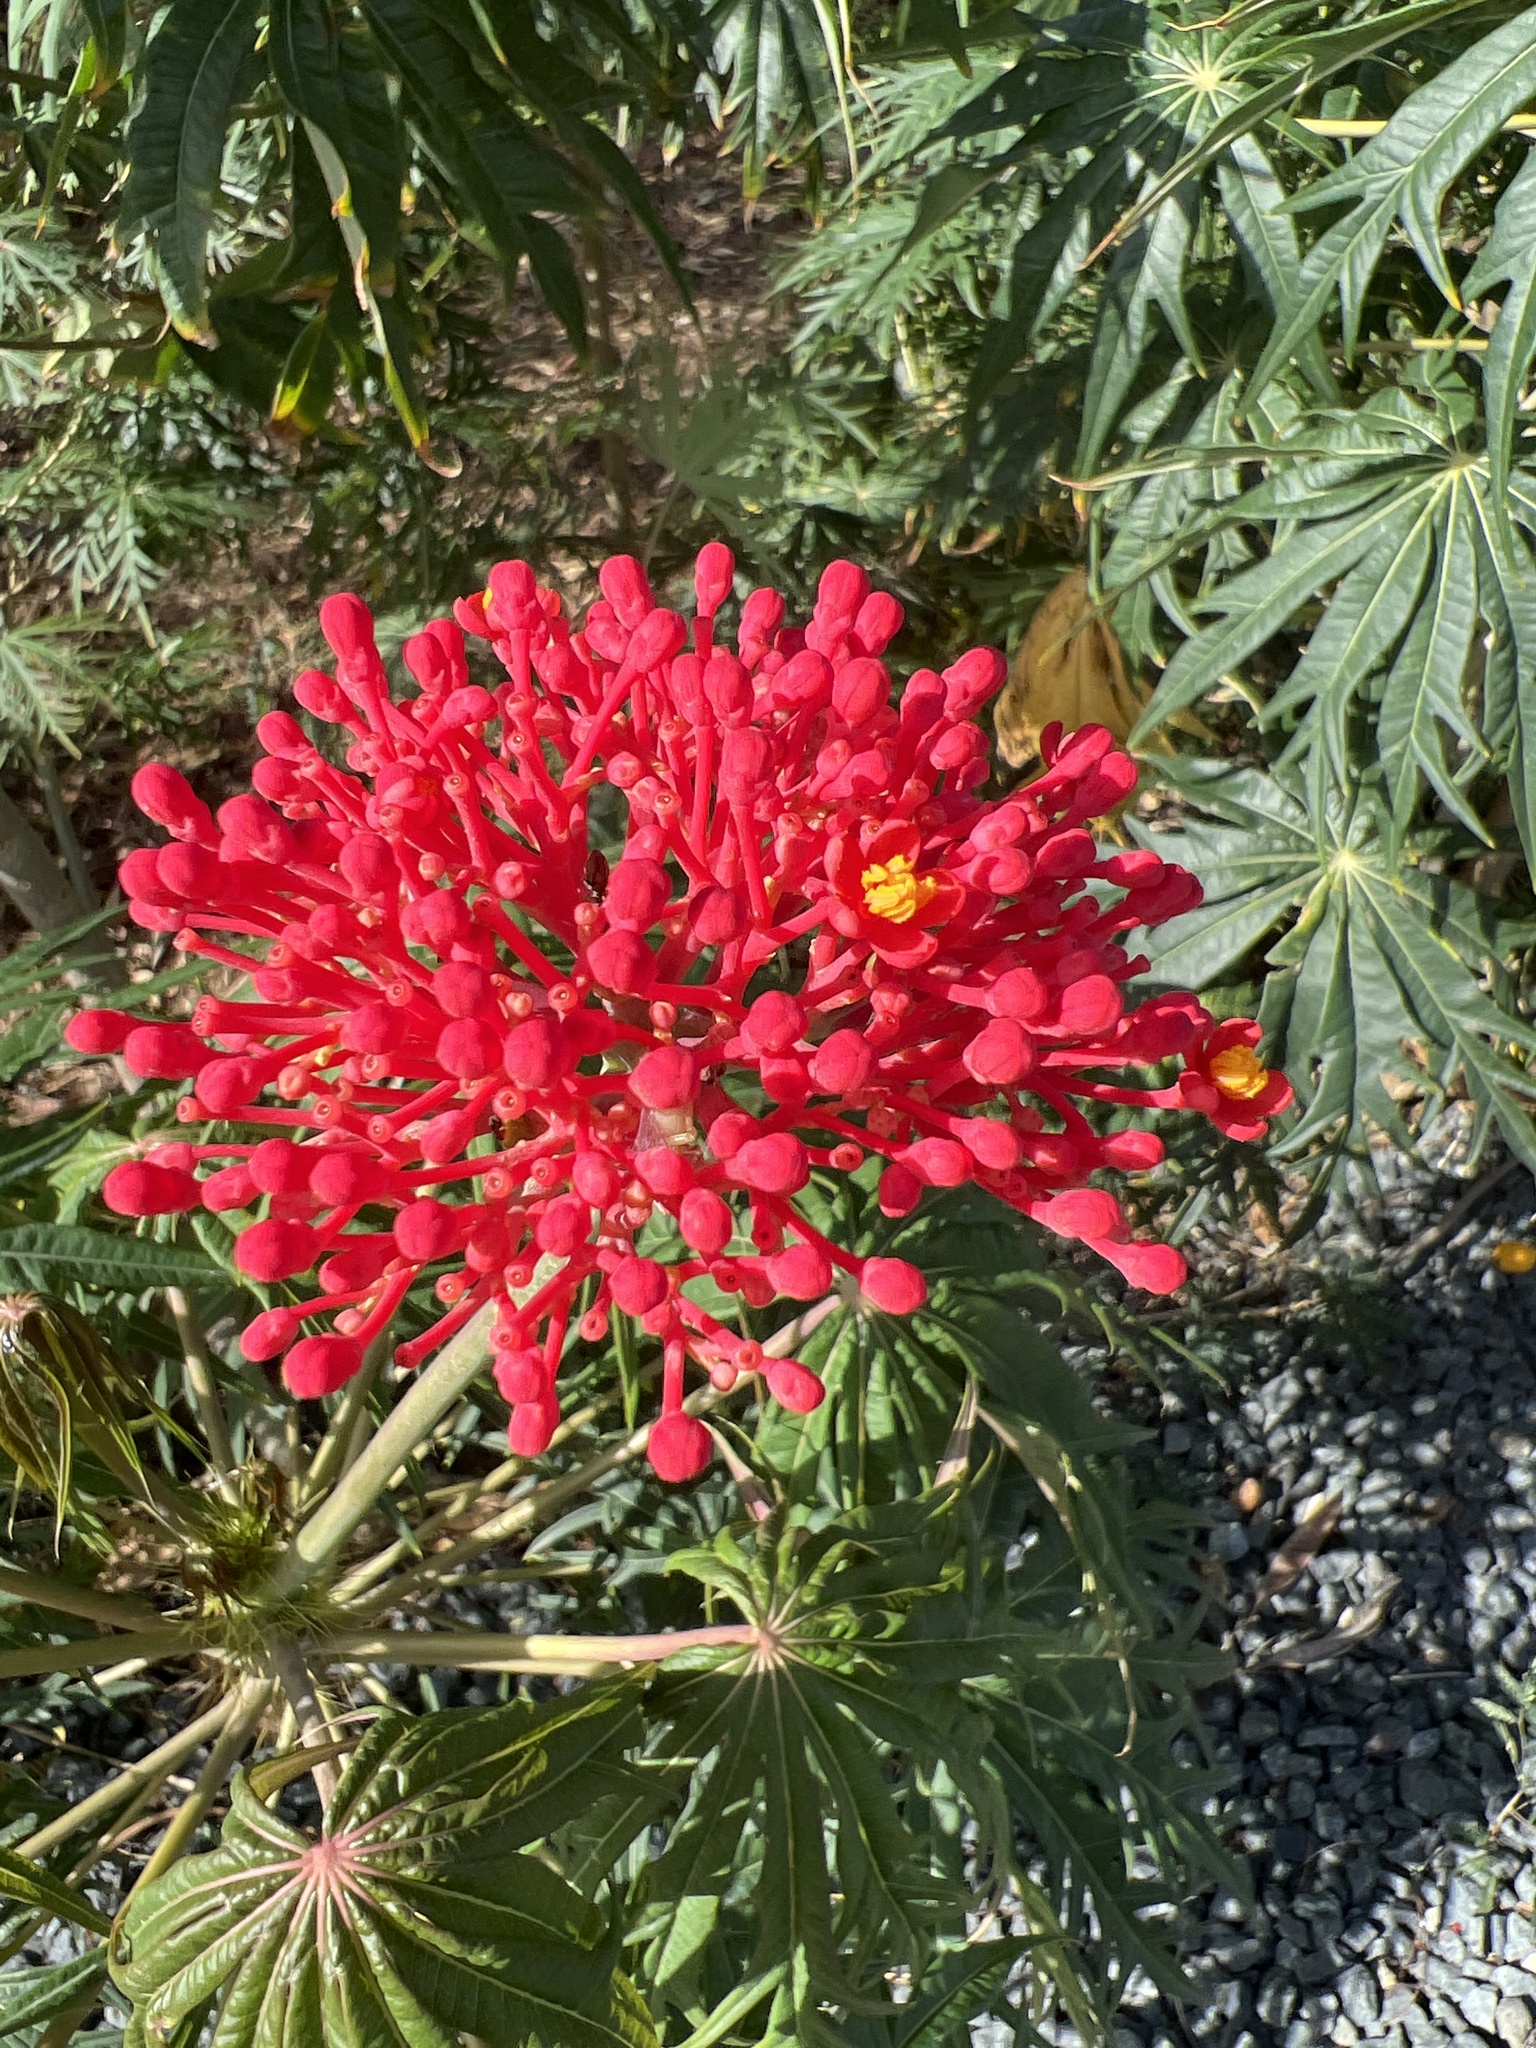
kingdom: Plantae
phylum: Tracheophyta
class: Magnoliopsida
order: Malpighiales
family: Euphorbiaceae
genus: Jatropha
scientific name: Jatropha multifida
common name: Coralbush
